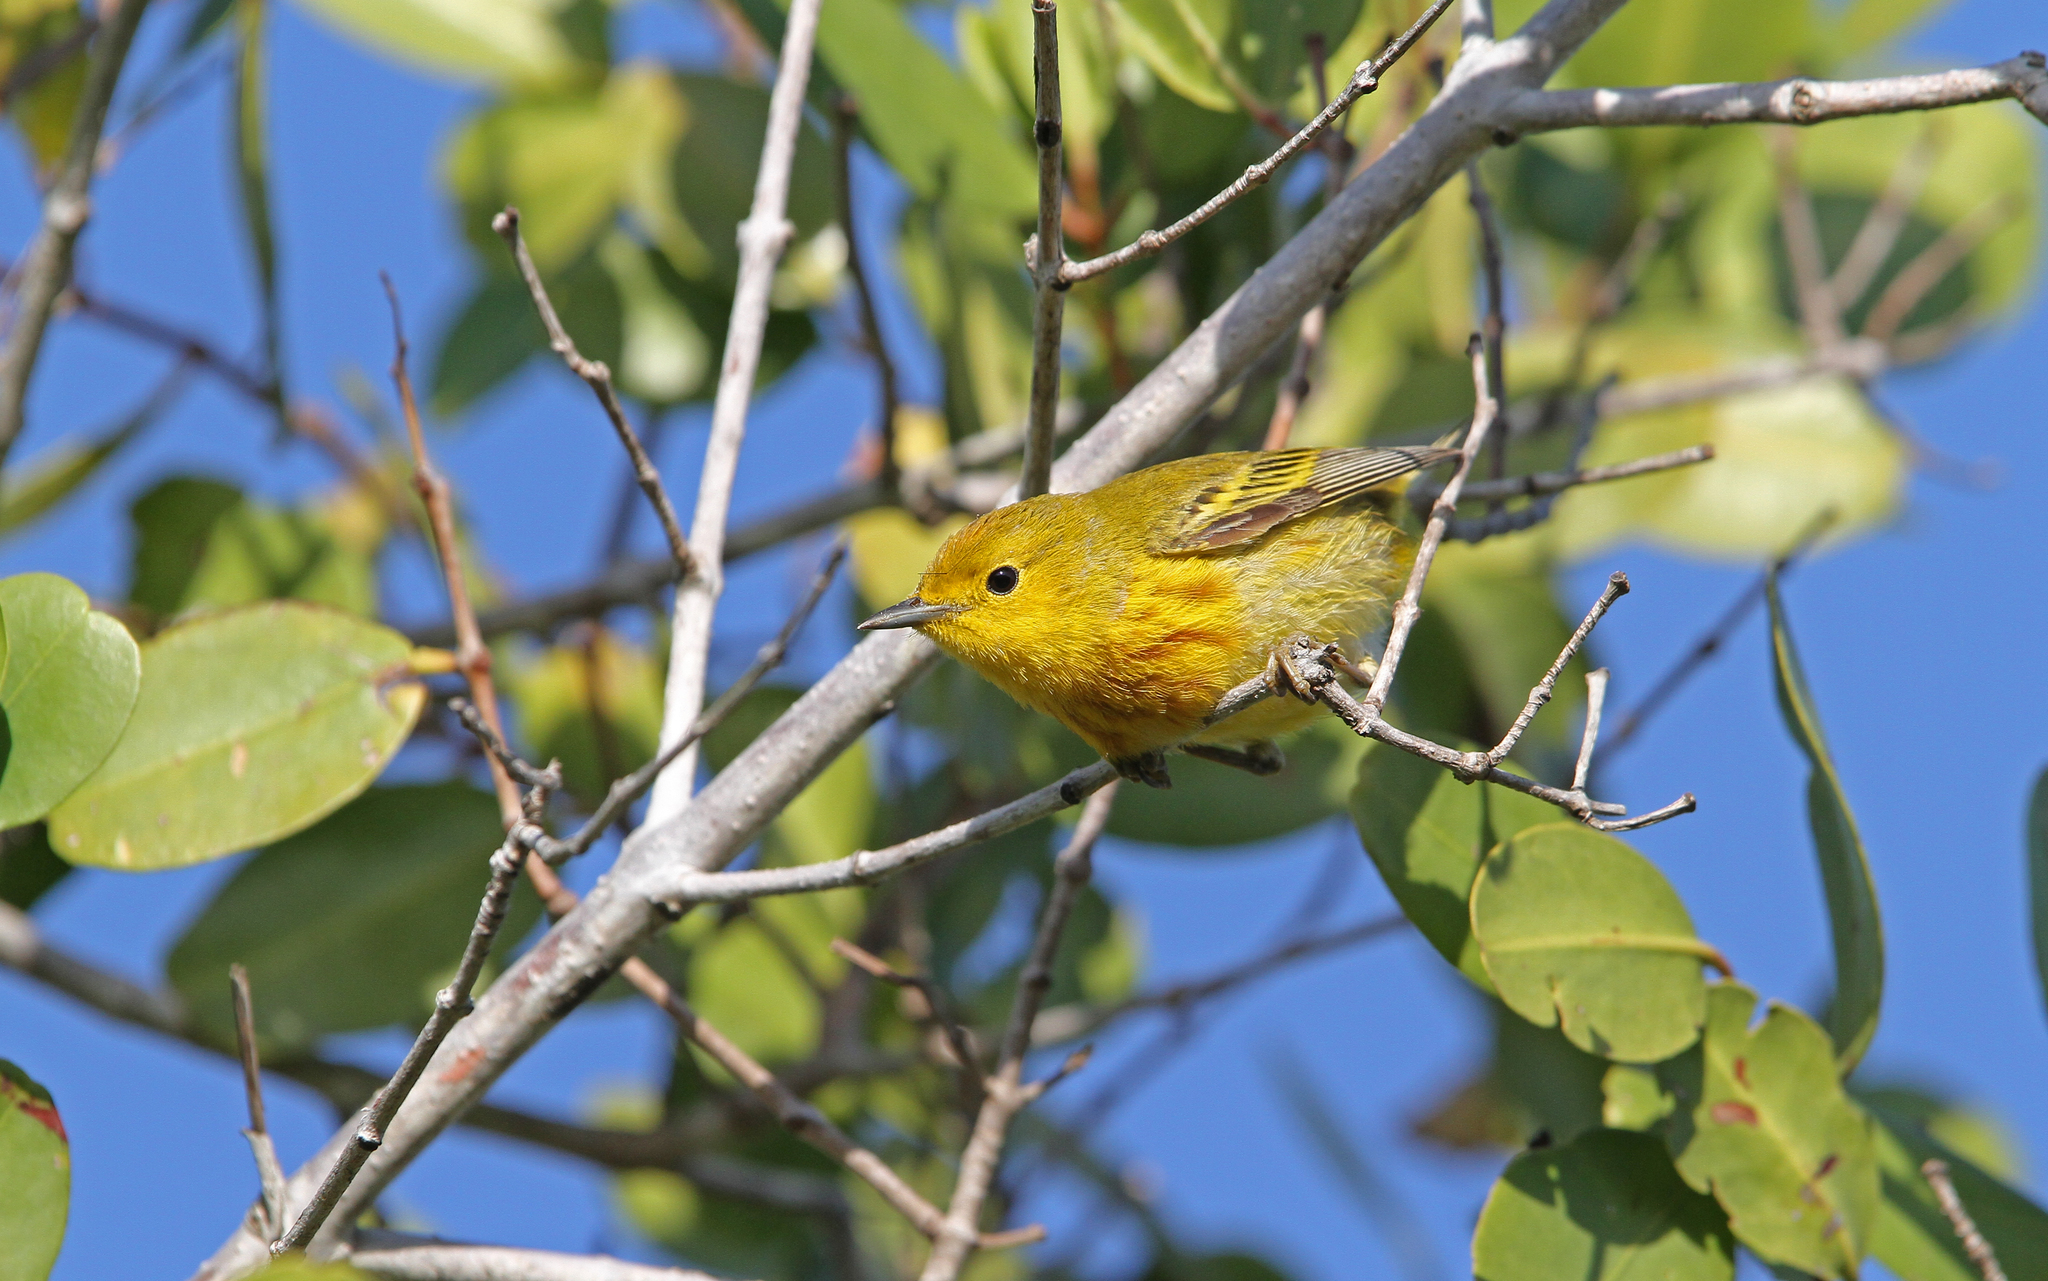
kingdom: Animalia
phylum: Chordata
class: Aves
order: Passeriformes
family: Parulidae
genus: Setophaga
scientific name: Setophaga petechia
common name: Yellow warbler
